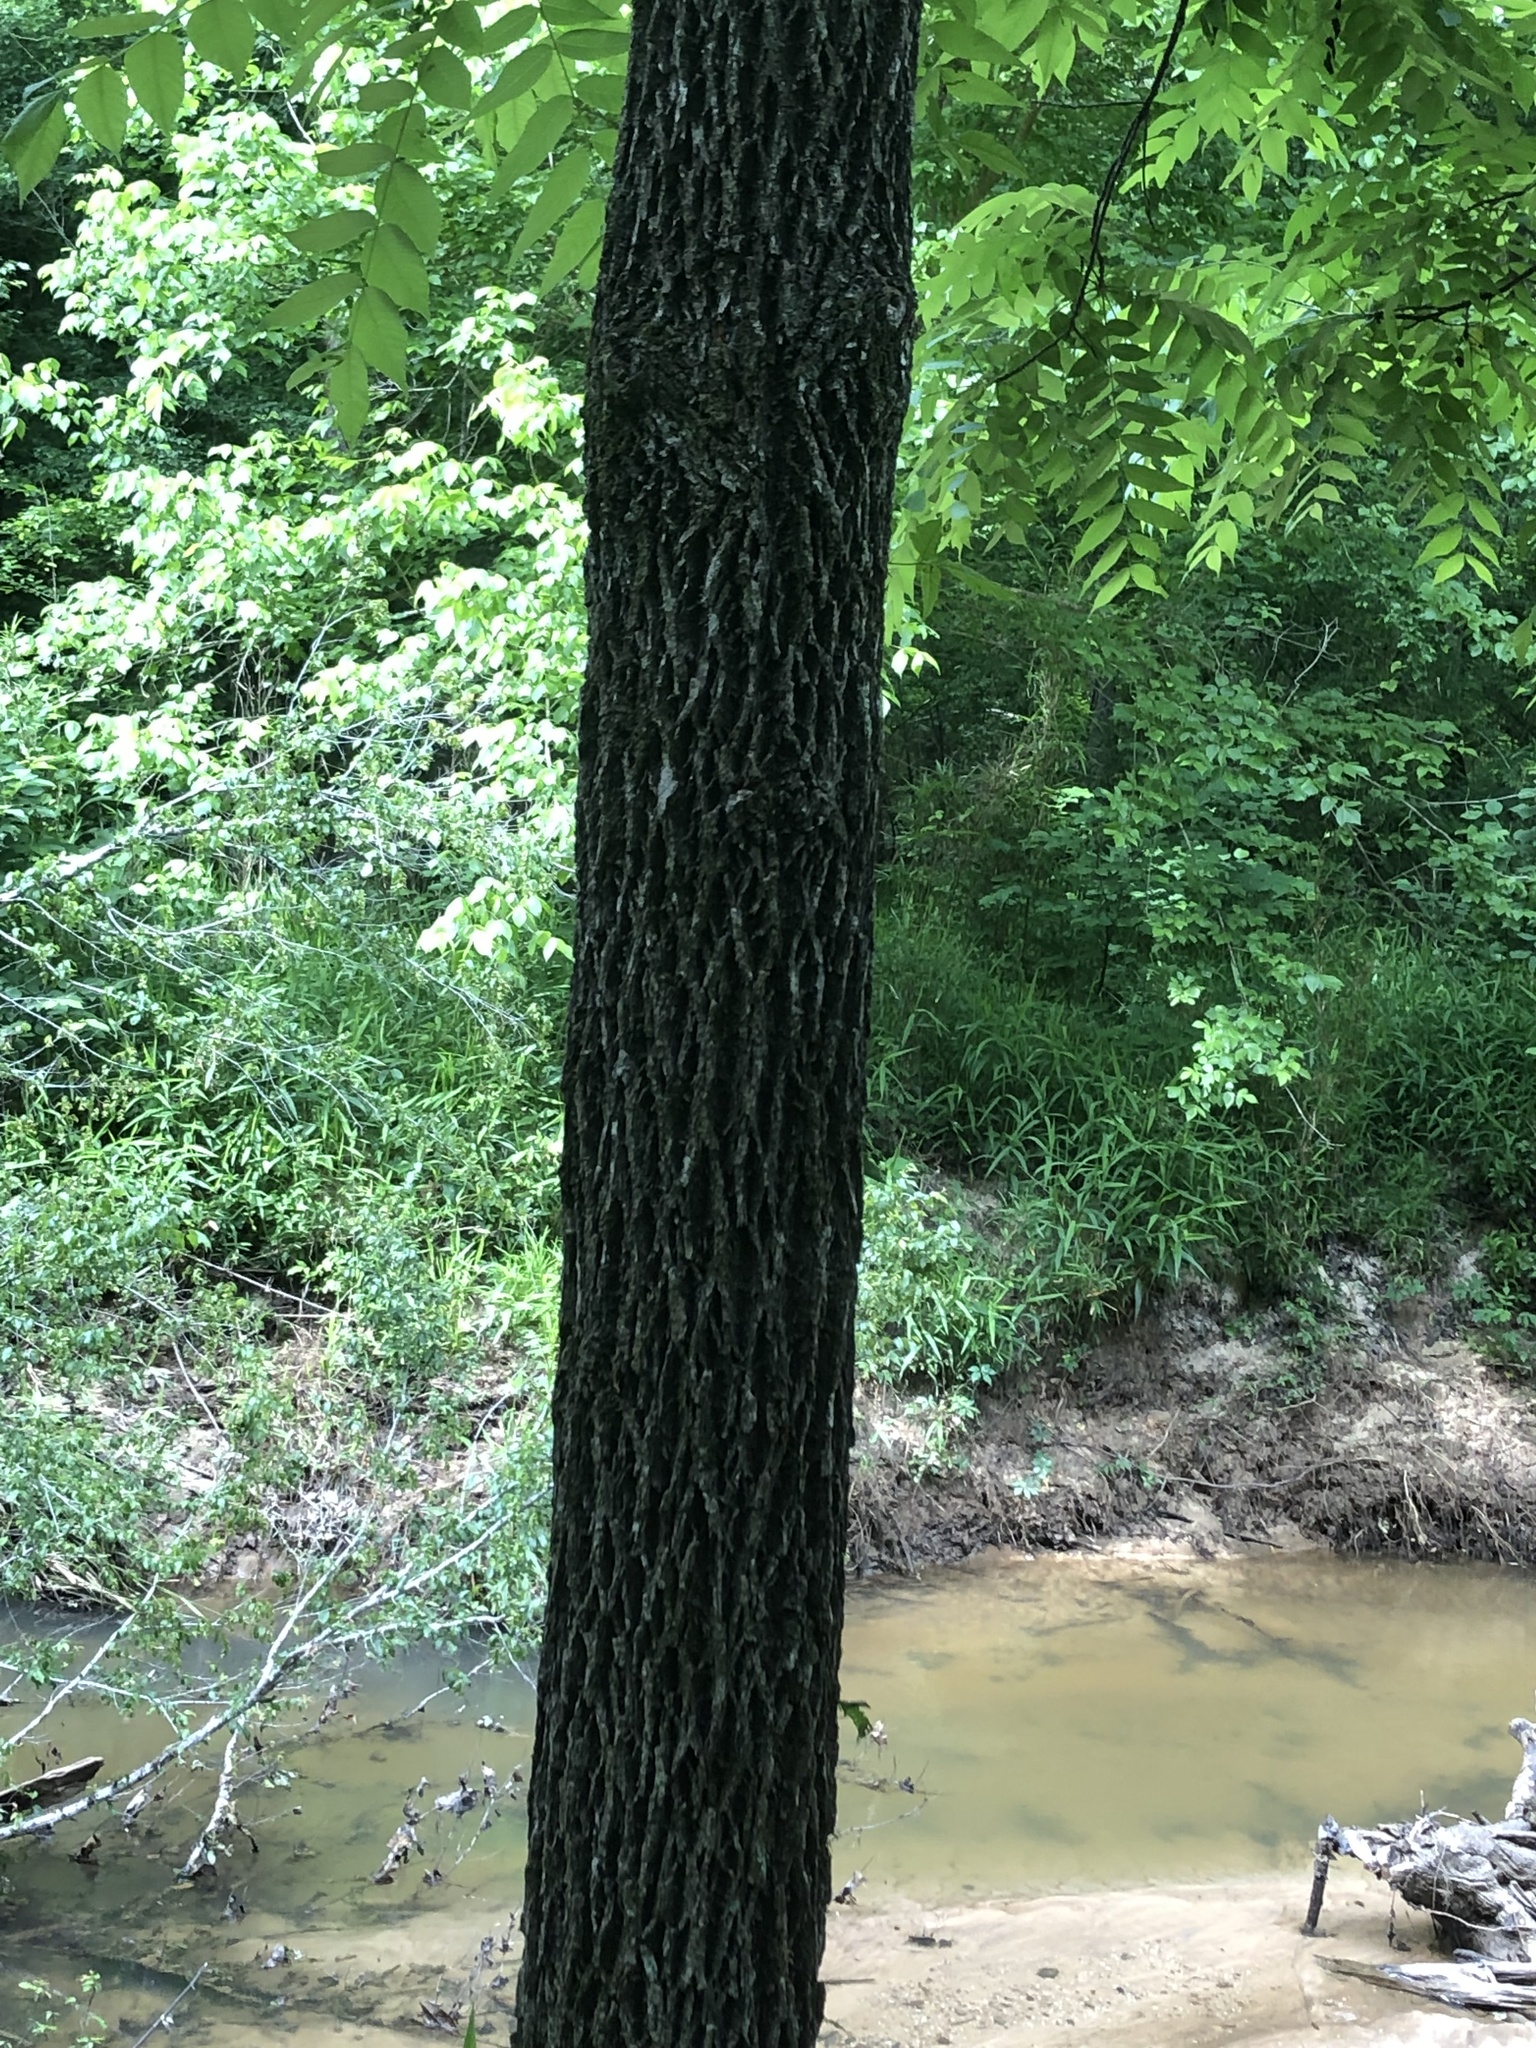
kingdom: Plantae
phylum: Tracheophyta
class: Magnoliopsida
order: Fagales
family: Juglandaceae
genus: Juglans
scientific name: Juglans nigra
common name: Black walnut
